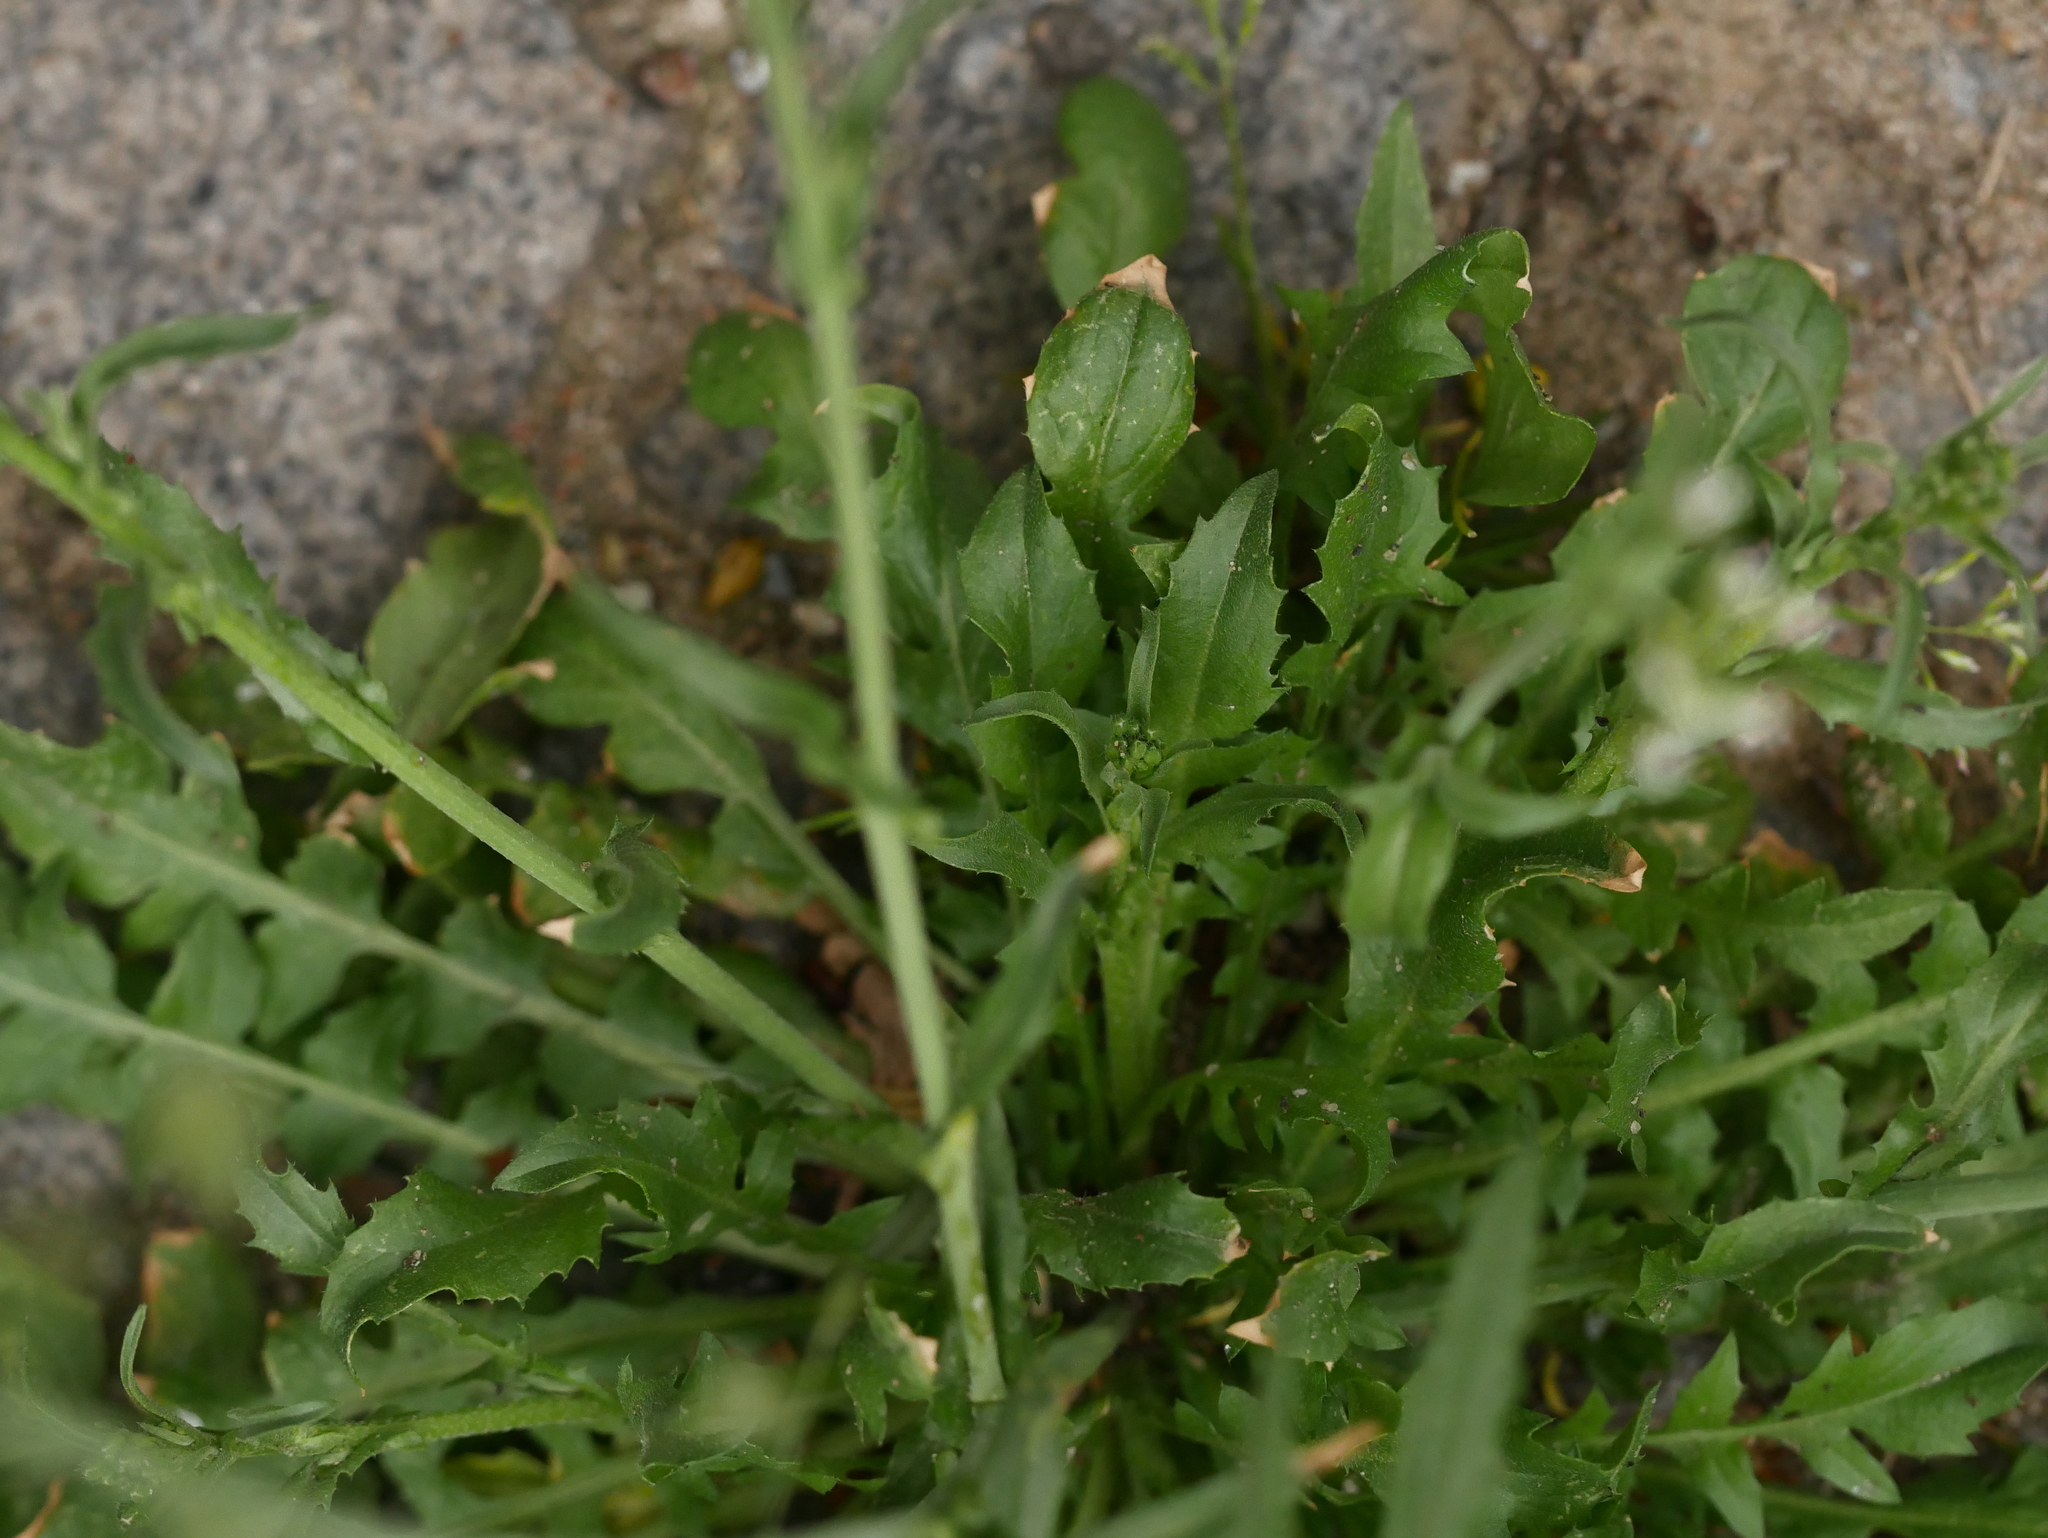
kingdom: Plantae
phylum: Tracheophyta
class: Magnoliopsida
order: Brassicales
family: Brassicaceae
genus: Capsella
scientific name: Capsella bursa-pastoris
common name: Shepherd's purse
